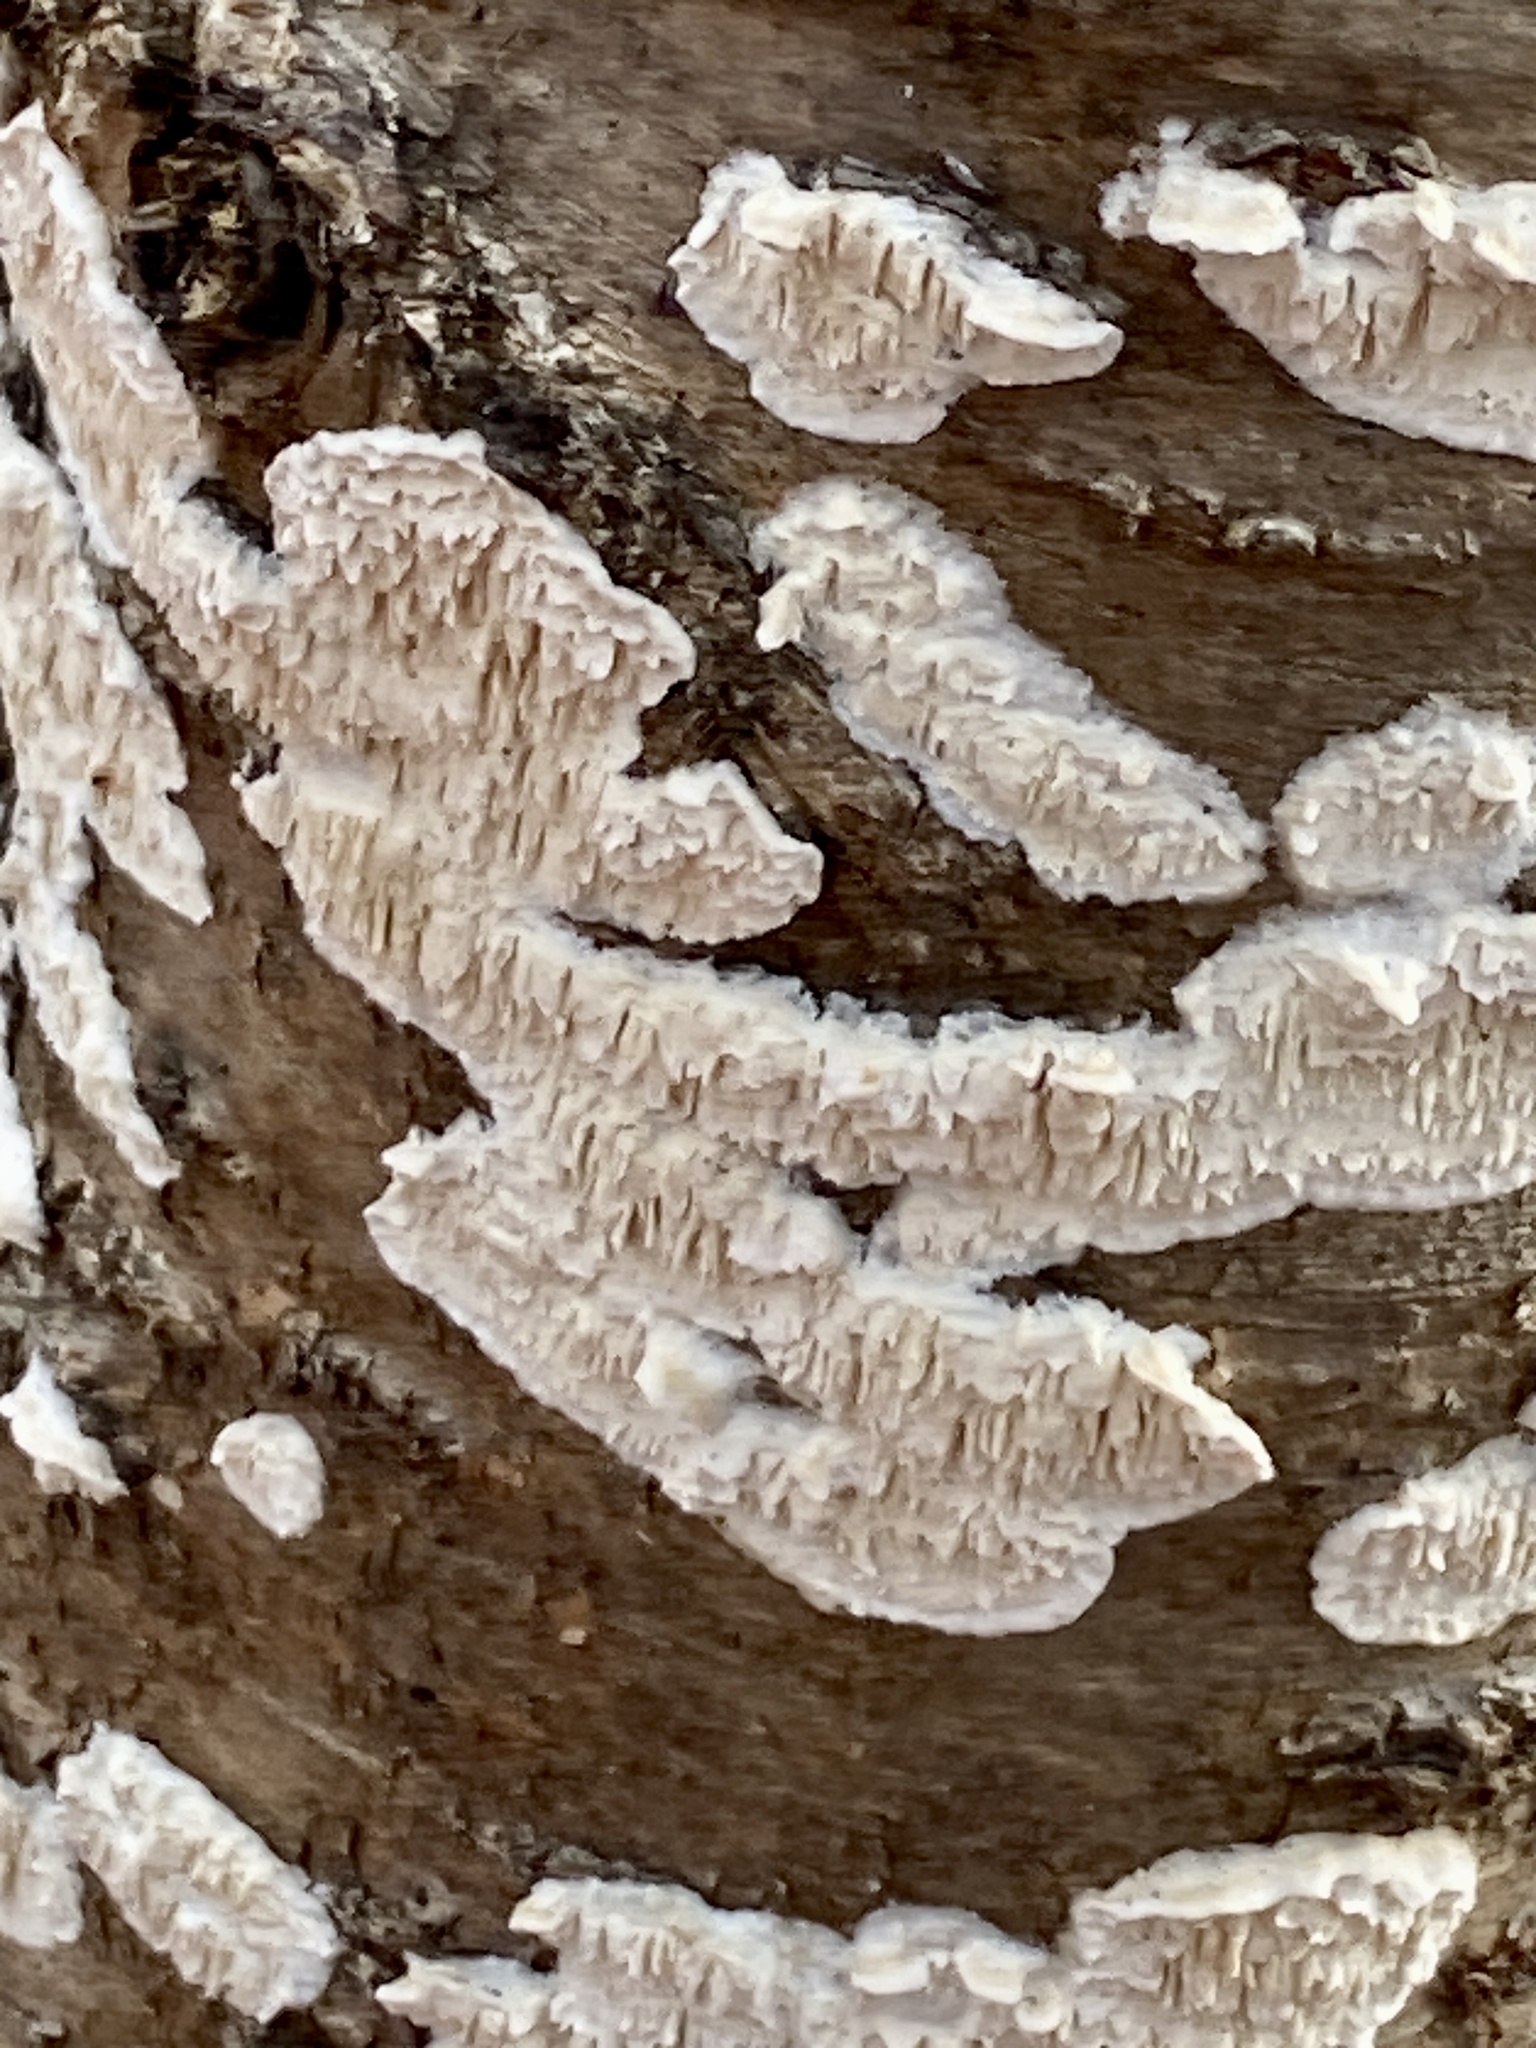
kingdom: Fungi
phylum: Basidiomycota
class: Agaricomycetes
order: Polyporales
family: Irpicaceae
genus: Irpex
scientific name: Irpex lacteus
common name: Milk-white toothed polypore
